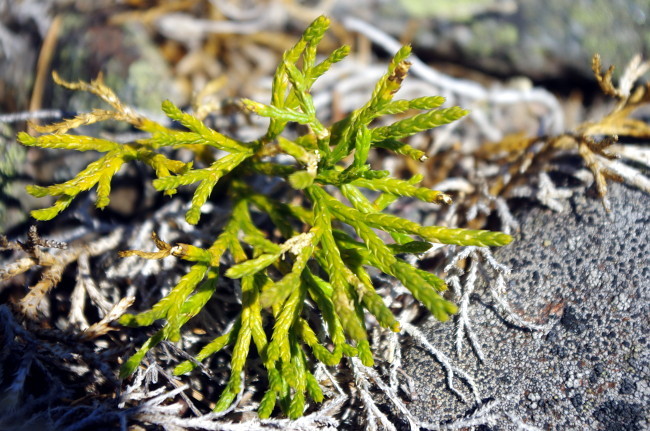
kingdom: Plantae
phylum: Tracheophyta
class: Lycopodiopsida
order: Lycopodiales
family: Lycopodiaceae
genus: Diphasiastrum
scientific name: Diphasiastrum complanatum
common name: Northern running-pine
